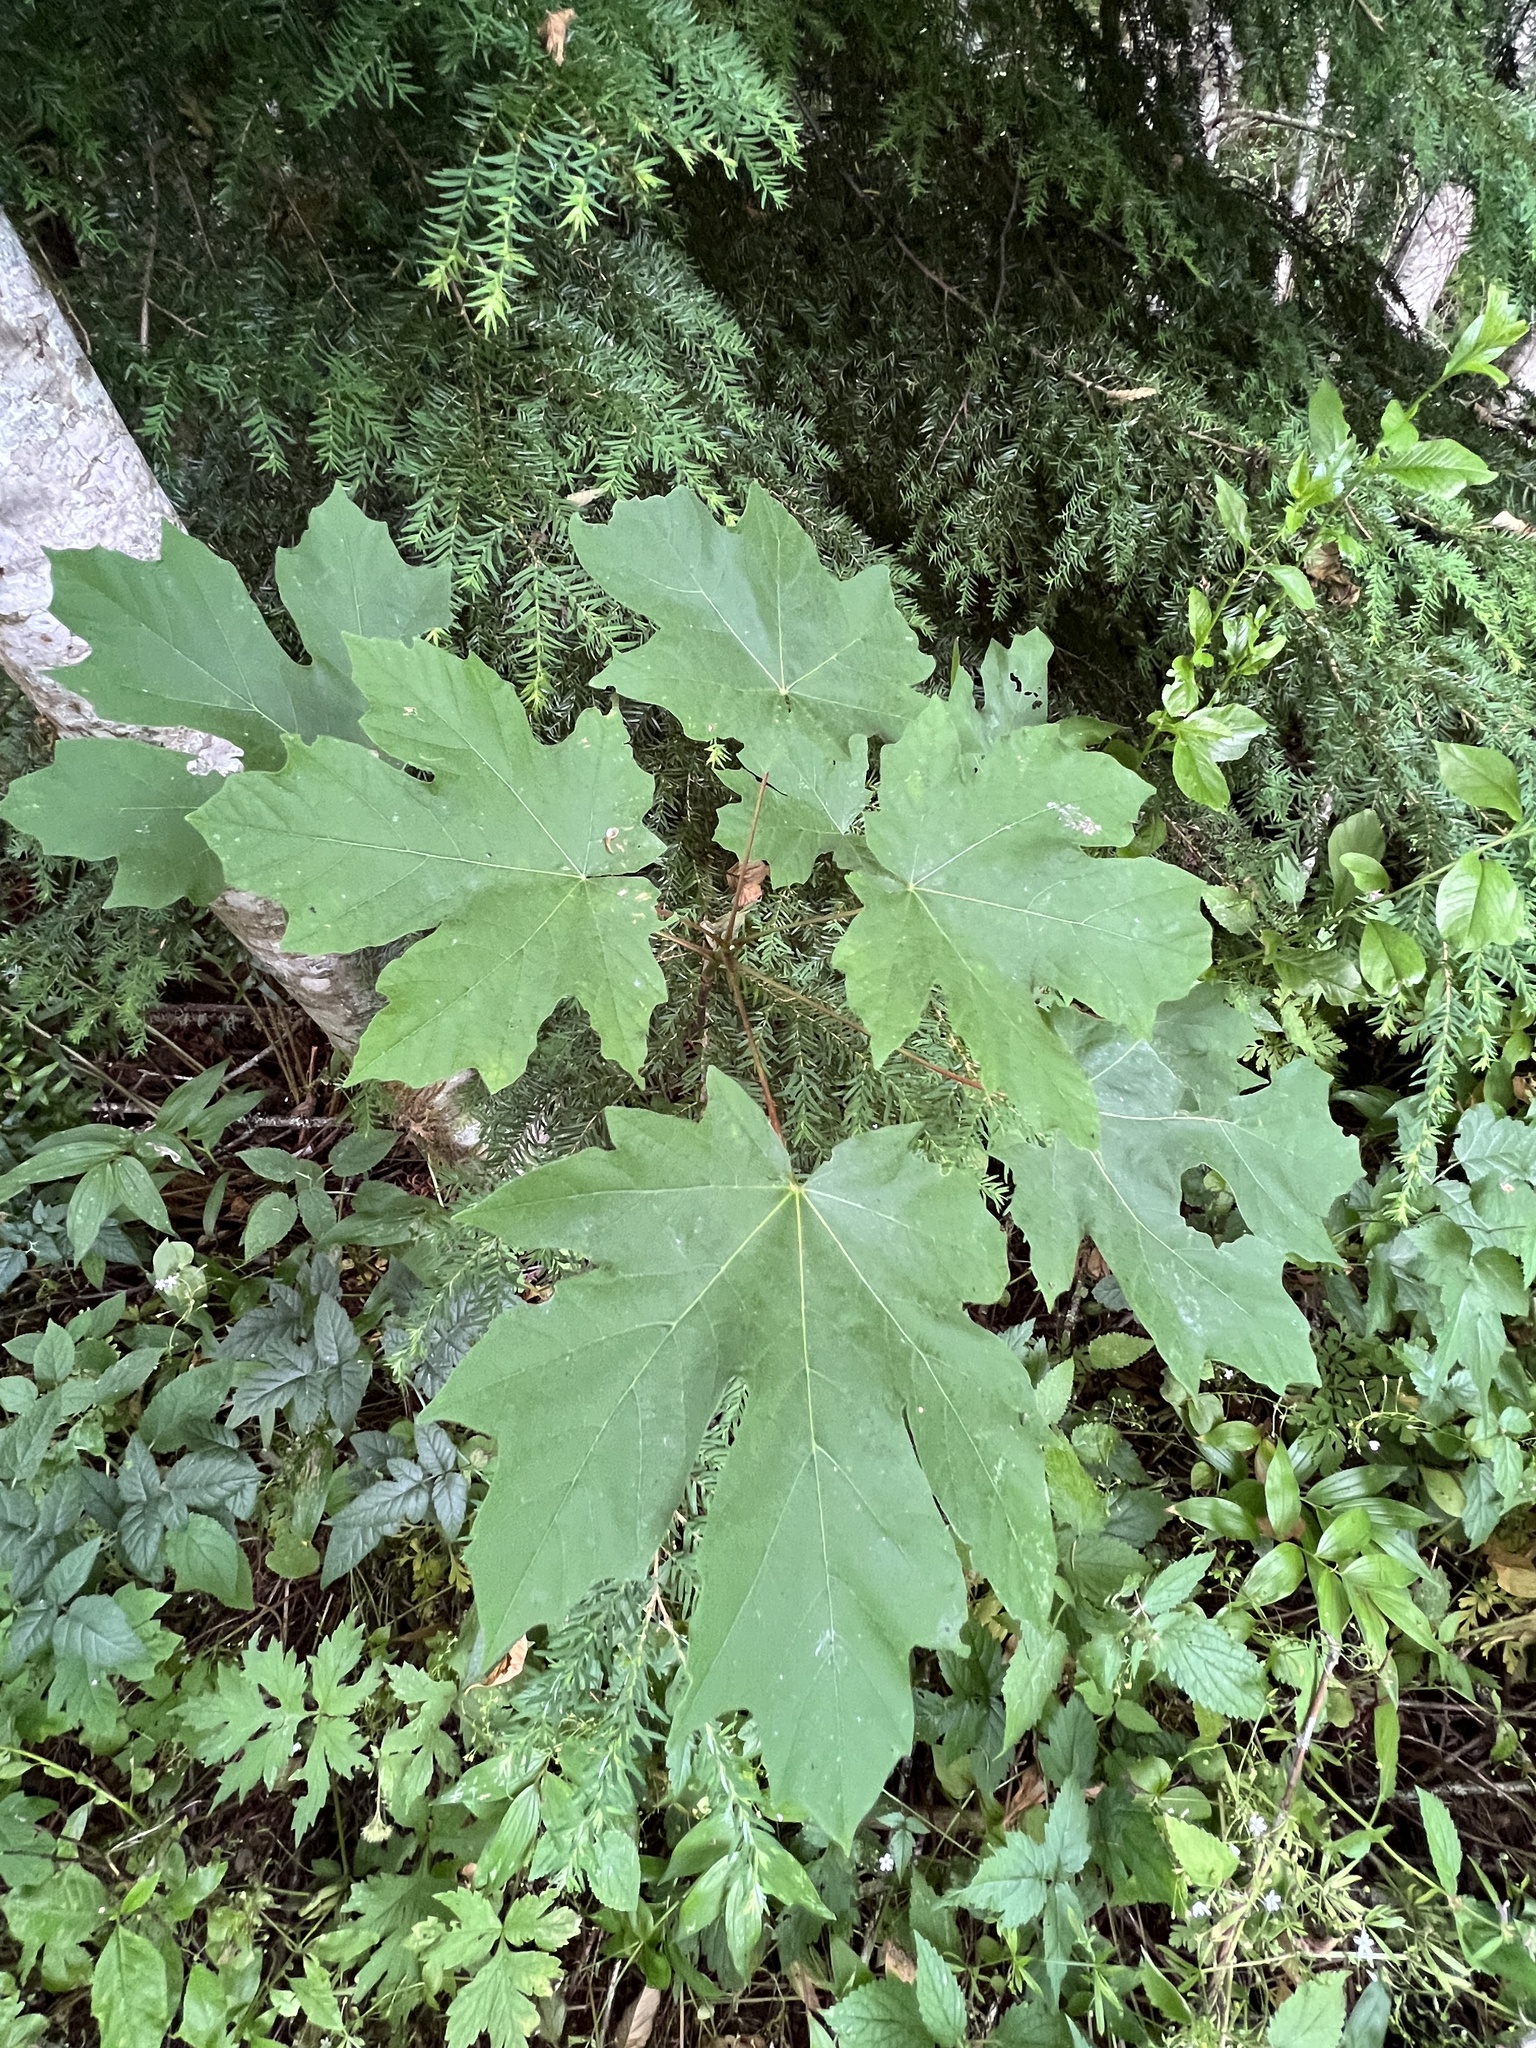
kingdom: Plantae
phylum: Tracheophyta
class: Magnoliopsida
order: Sapindales
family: Sapindaceae
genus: Acer
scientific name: Acer macrophyllum
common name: Oregon maple
